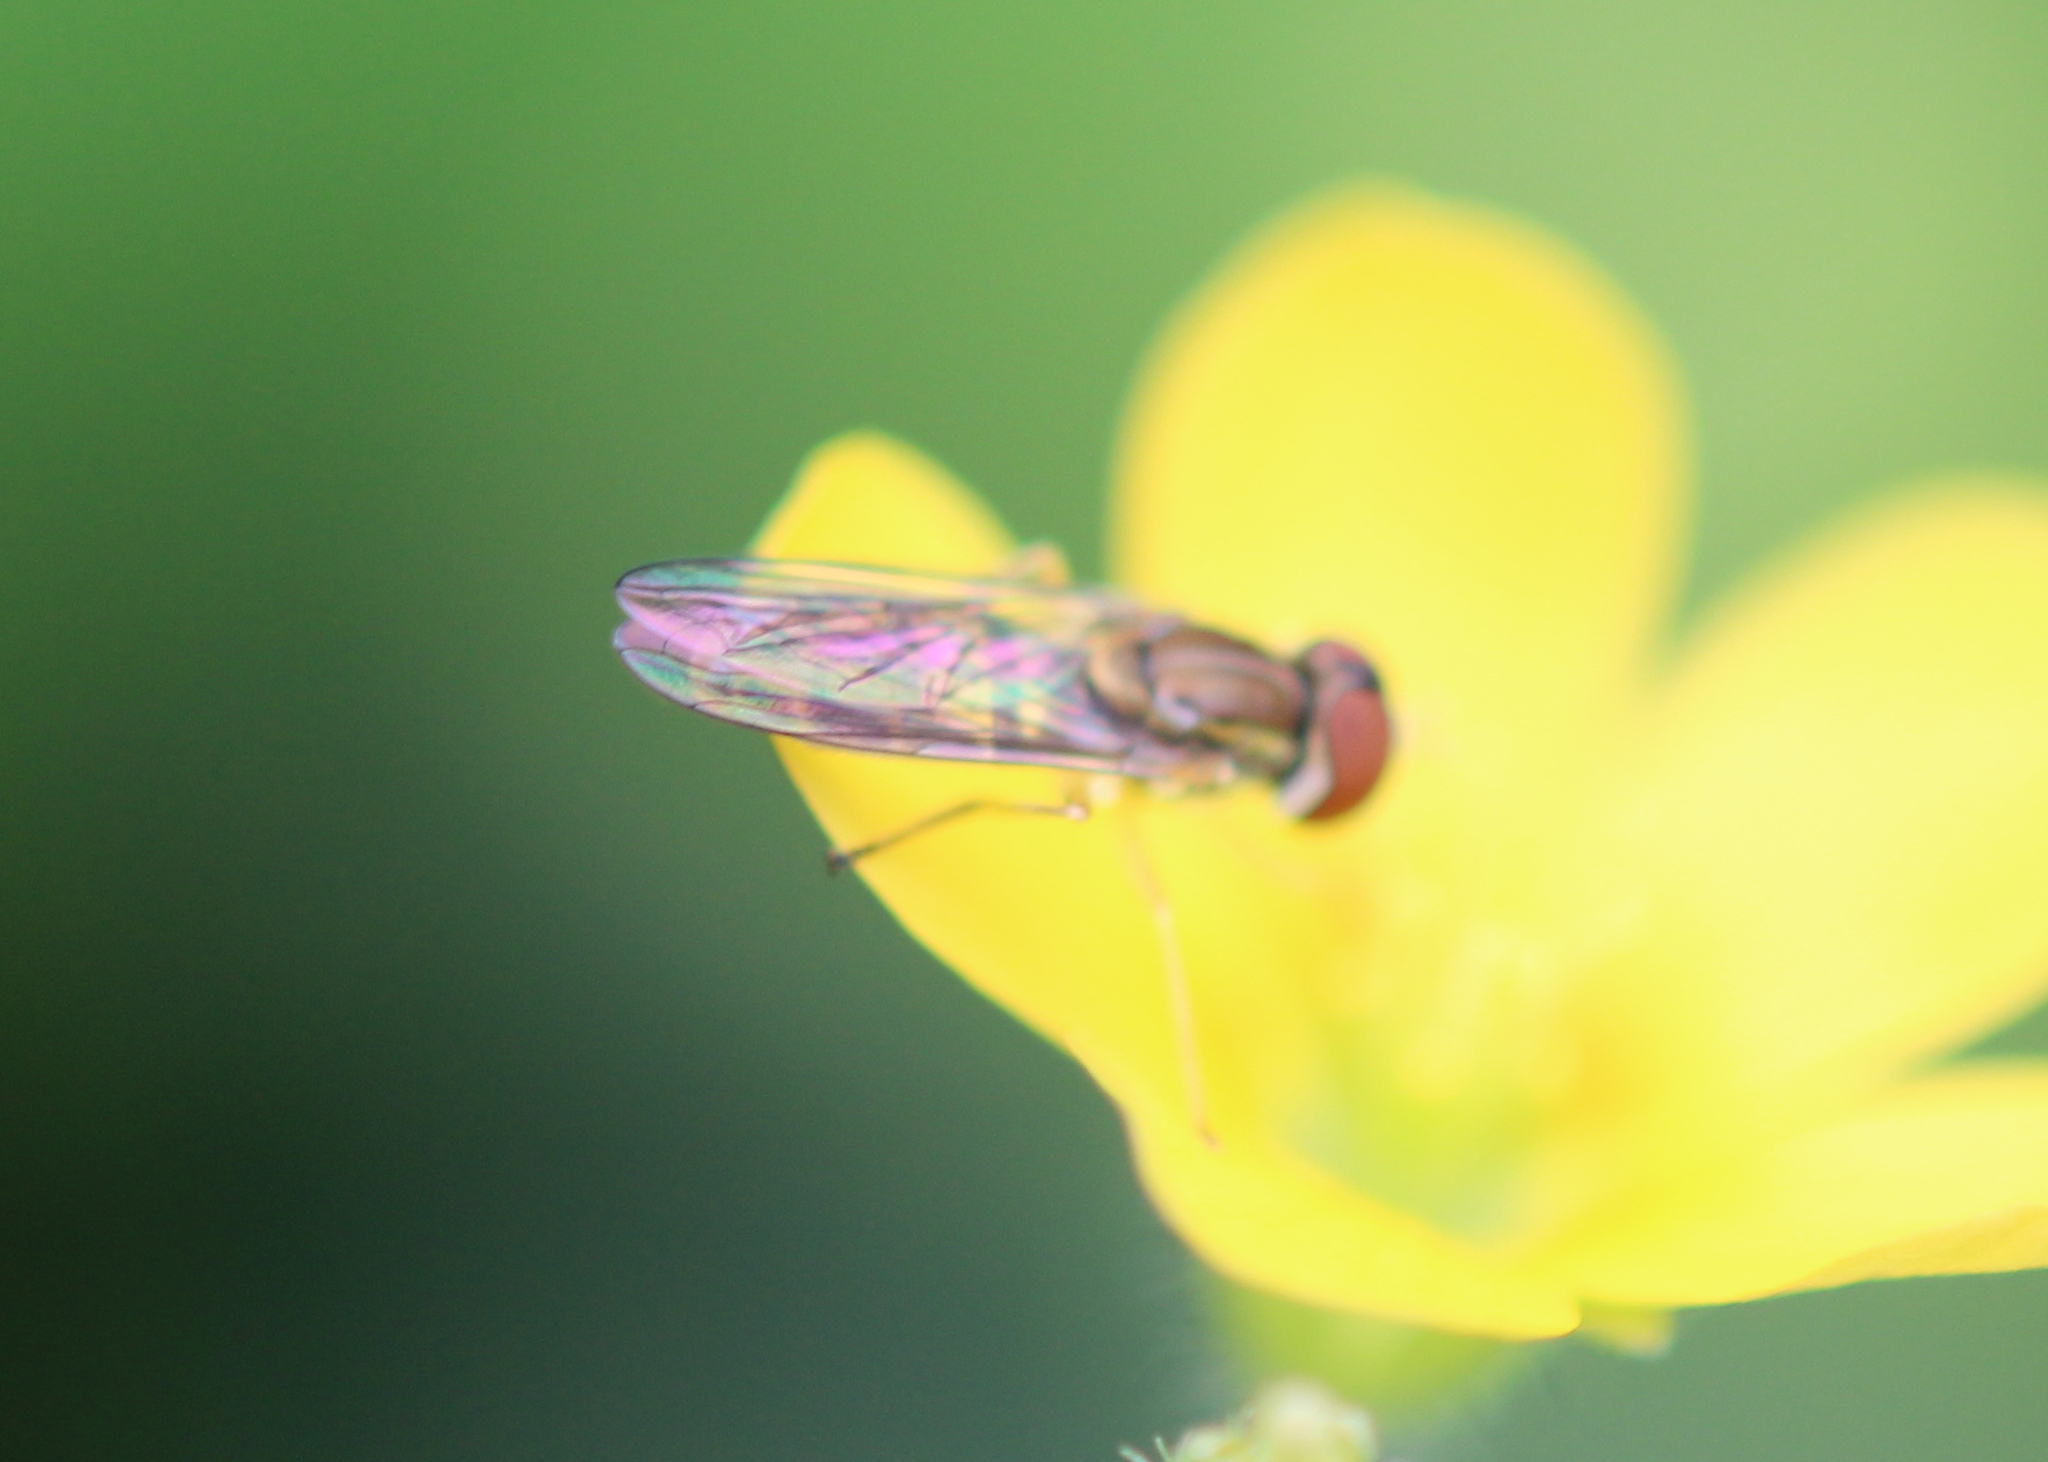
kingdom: Animalia
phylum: Arthropoda
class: Insecta
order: Diptera
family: Syrphidae
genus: Toxomerus
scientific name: Toxomerus marginatus
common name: Syrphid fly
